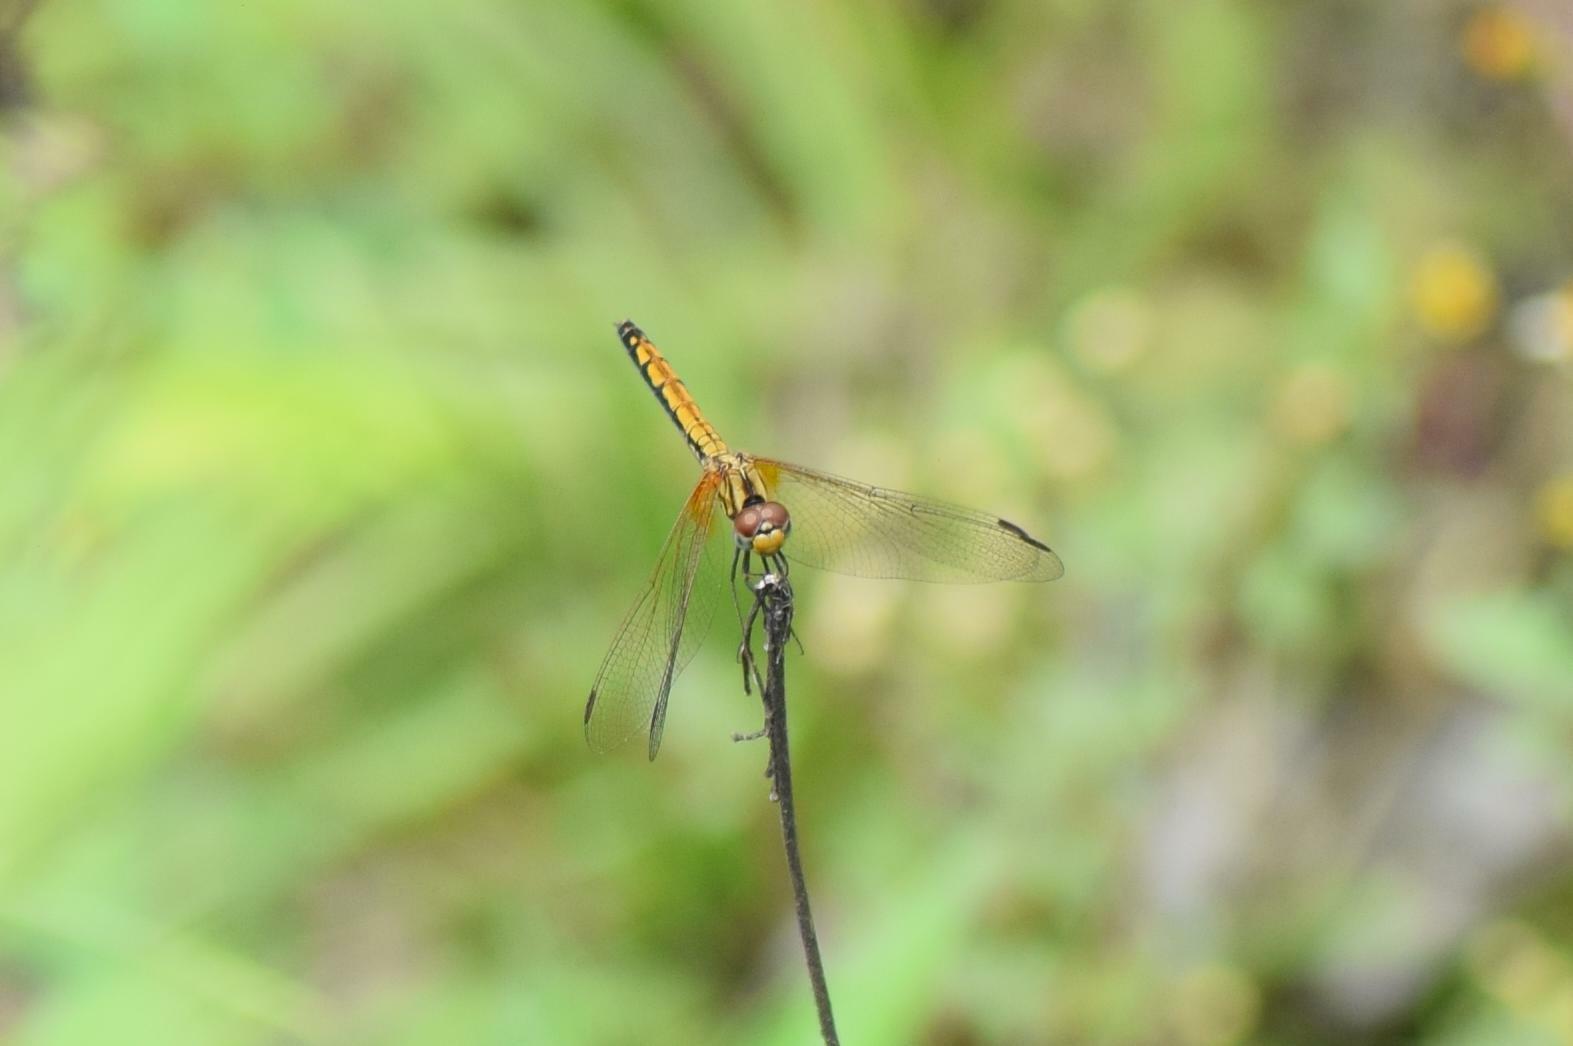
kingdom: Animalia
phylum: Arthropoda
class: Insecta
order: Odonata
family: Libellulidae
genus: Trithemis
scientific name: Trithemis aurora
